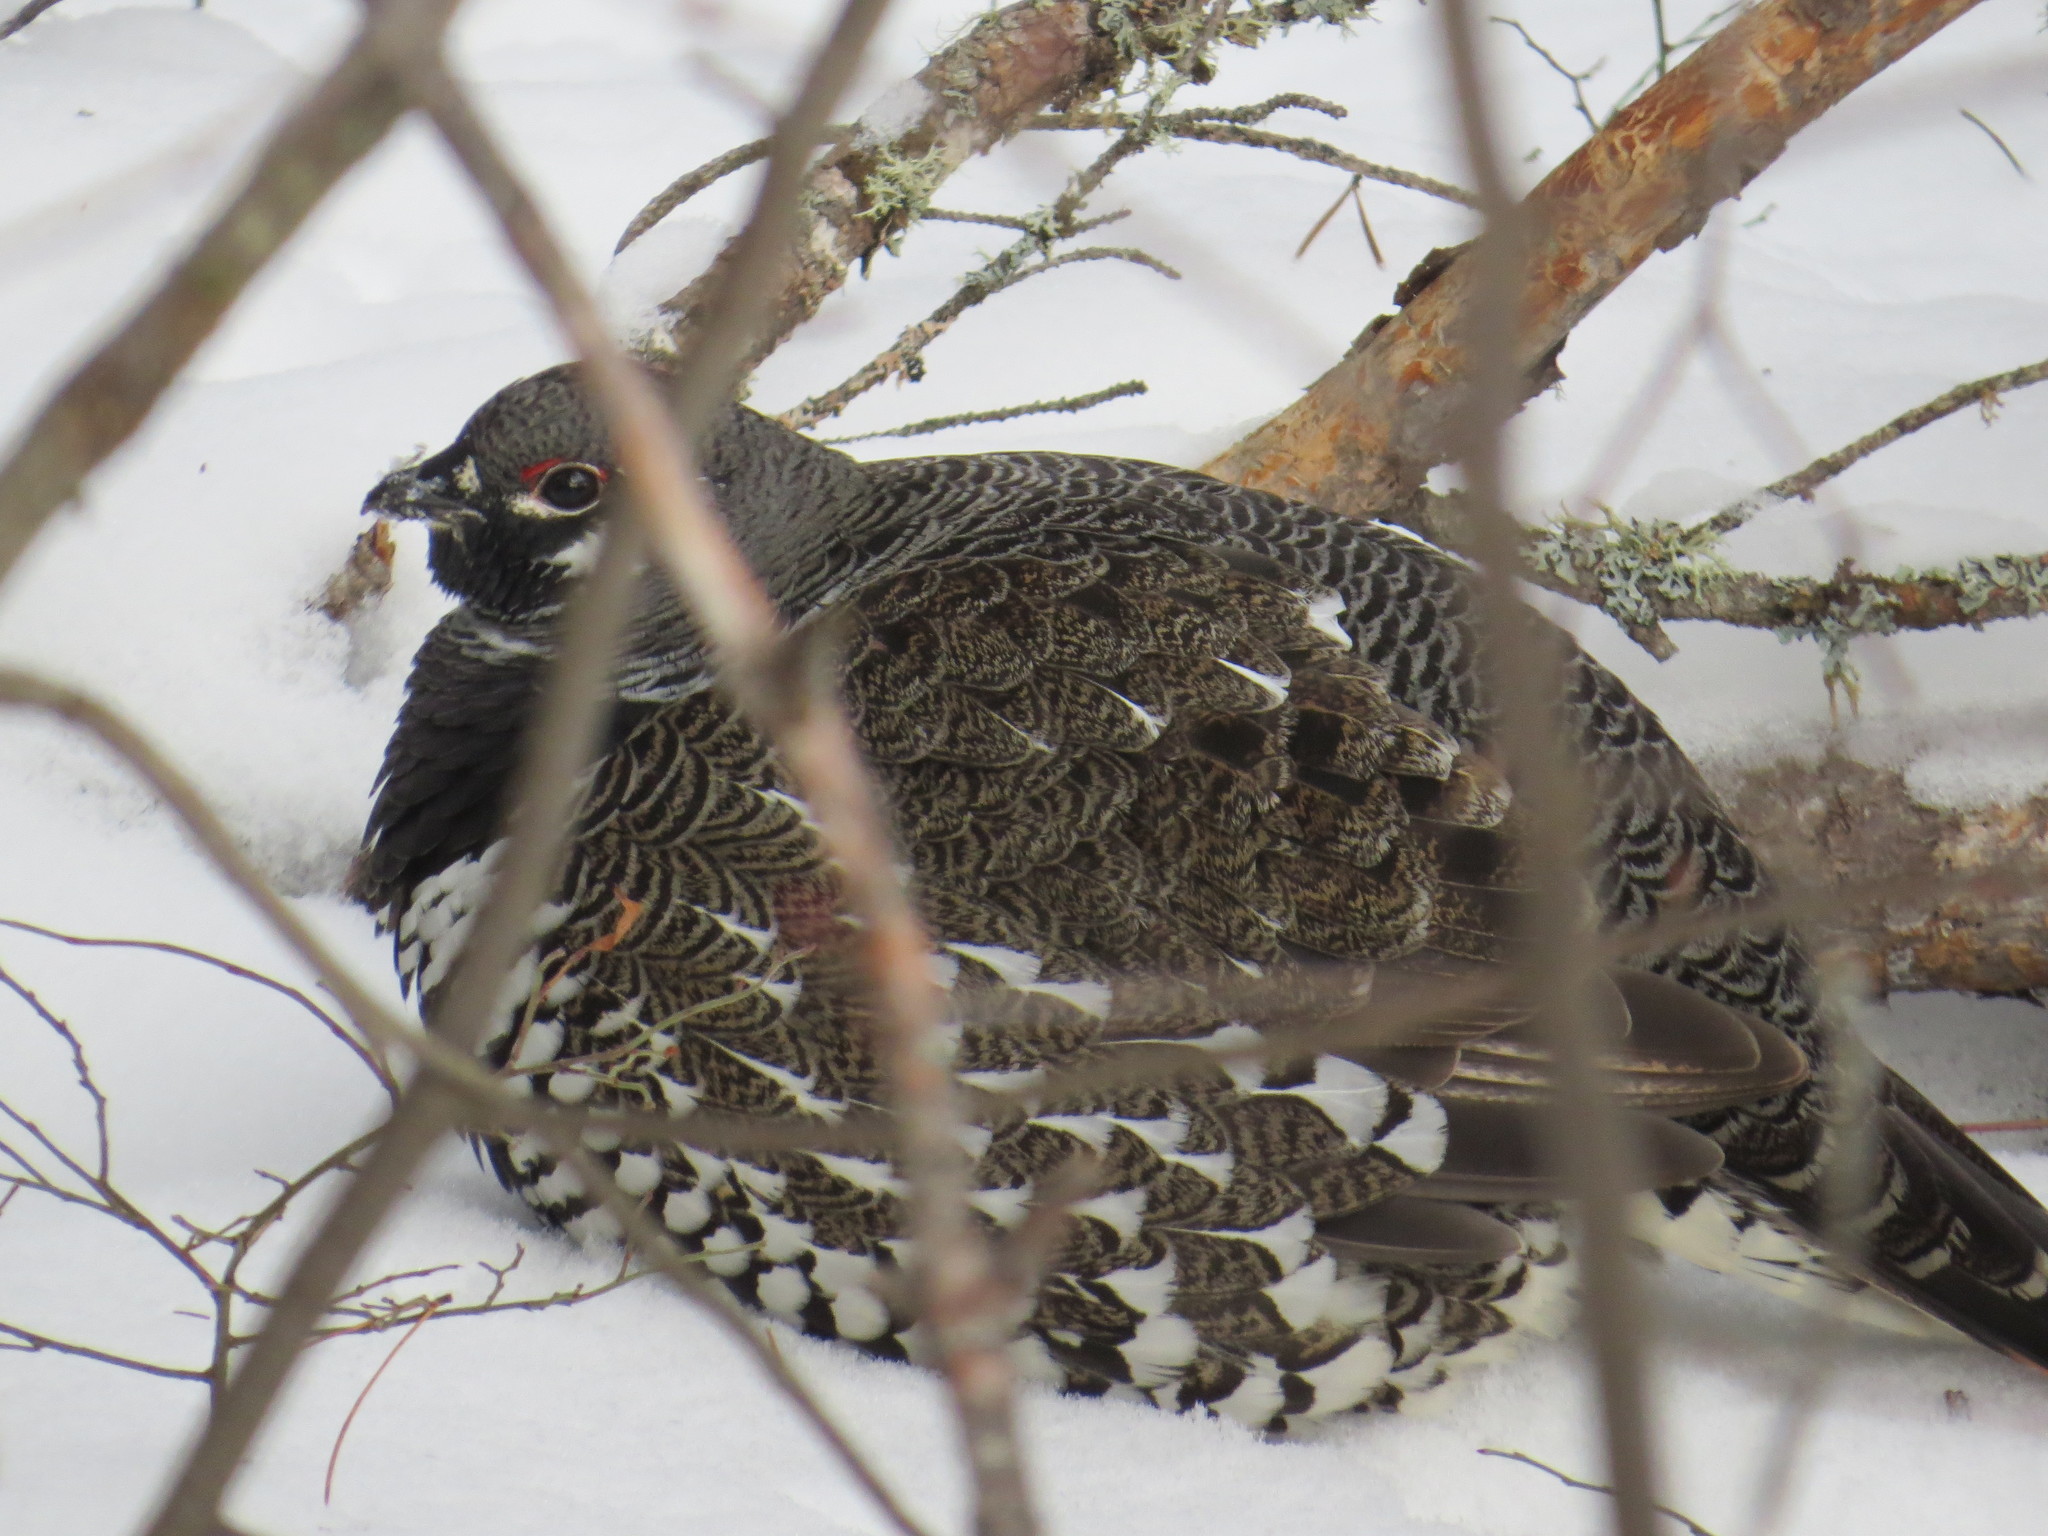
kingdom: Animalia
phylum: Chordata
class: Aves
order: Galliformes
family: Phasianidae
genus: Canachites
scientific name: Canachites canadensis
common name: Spruce grouse
